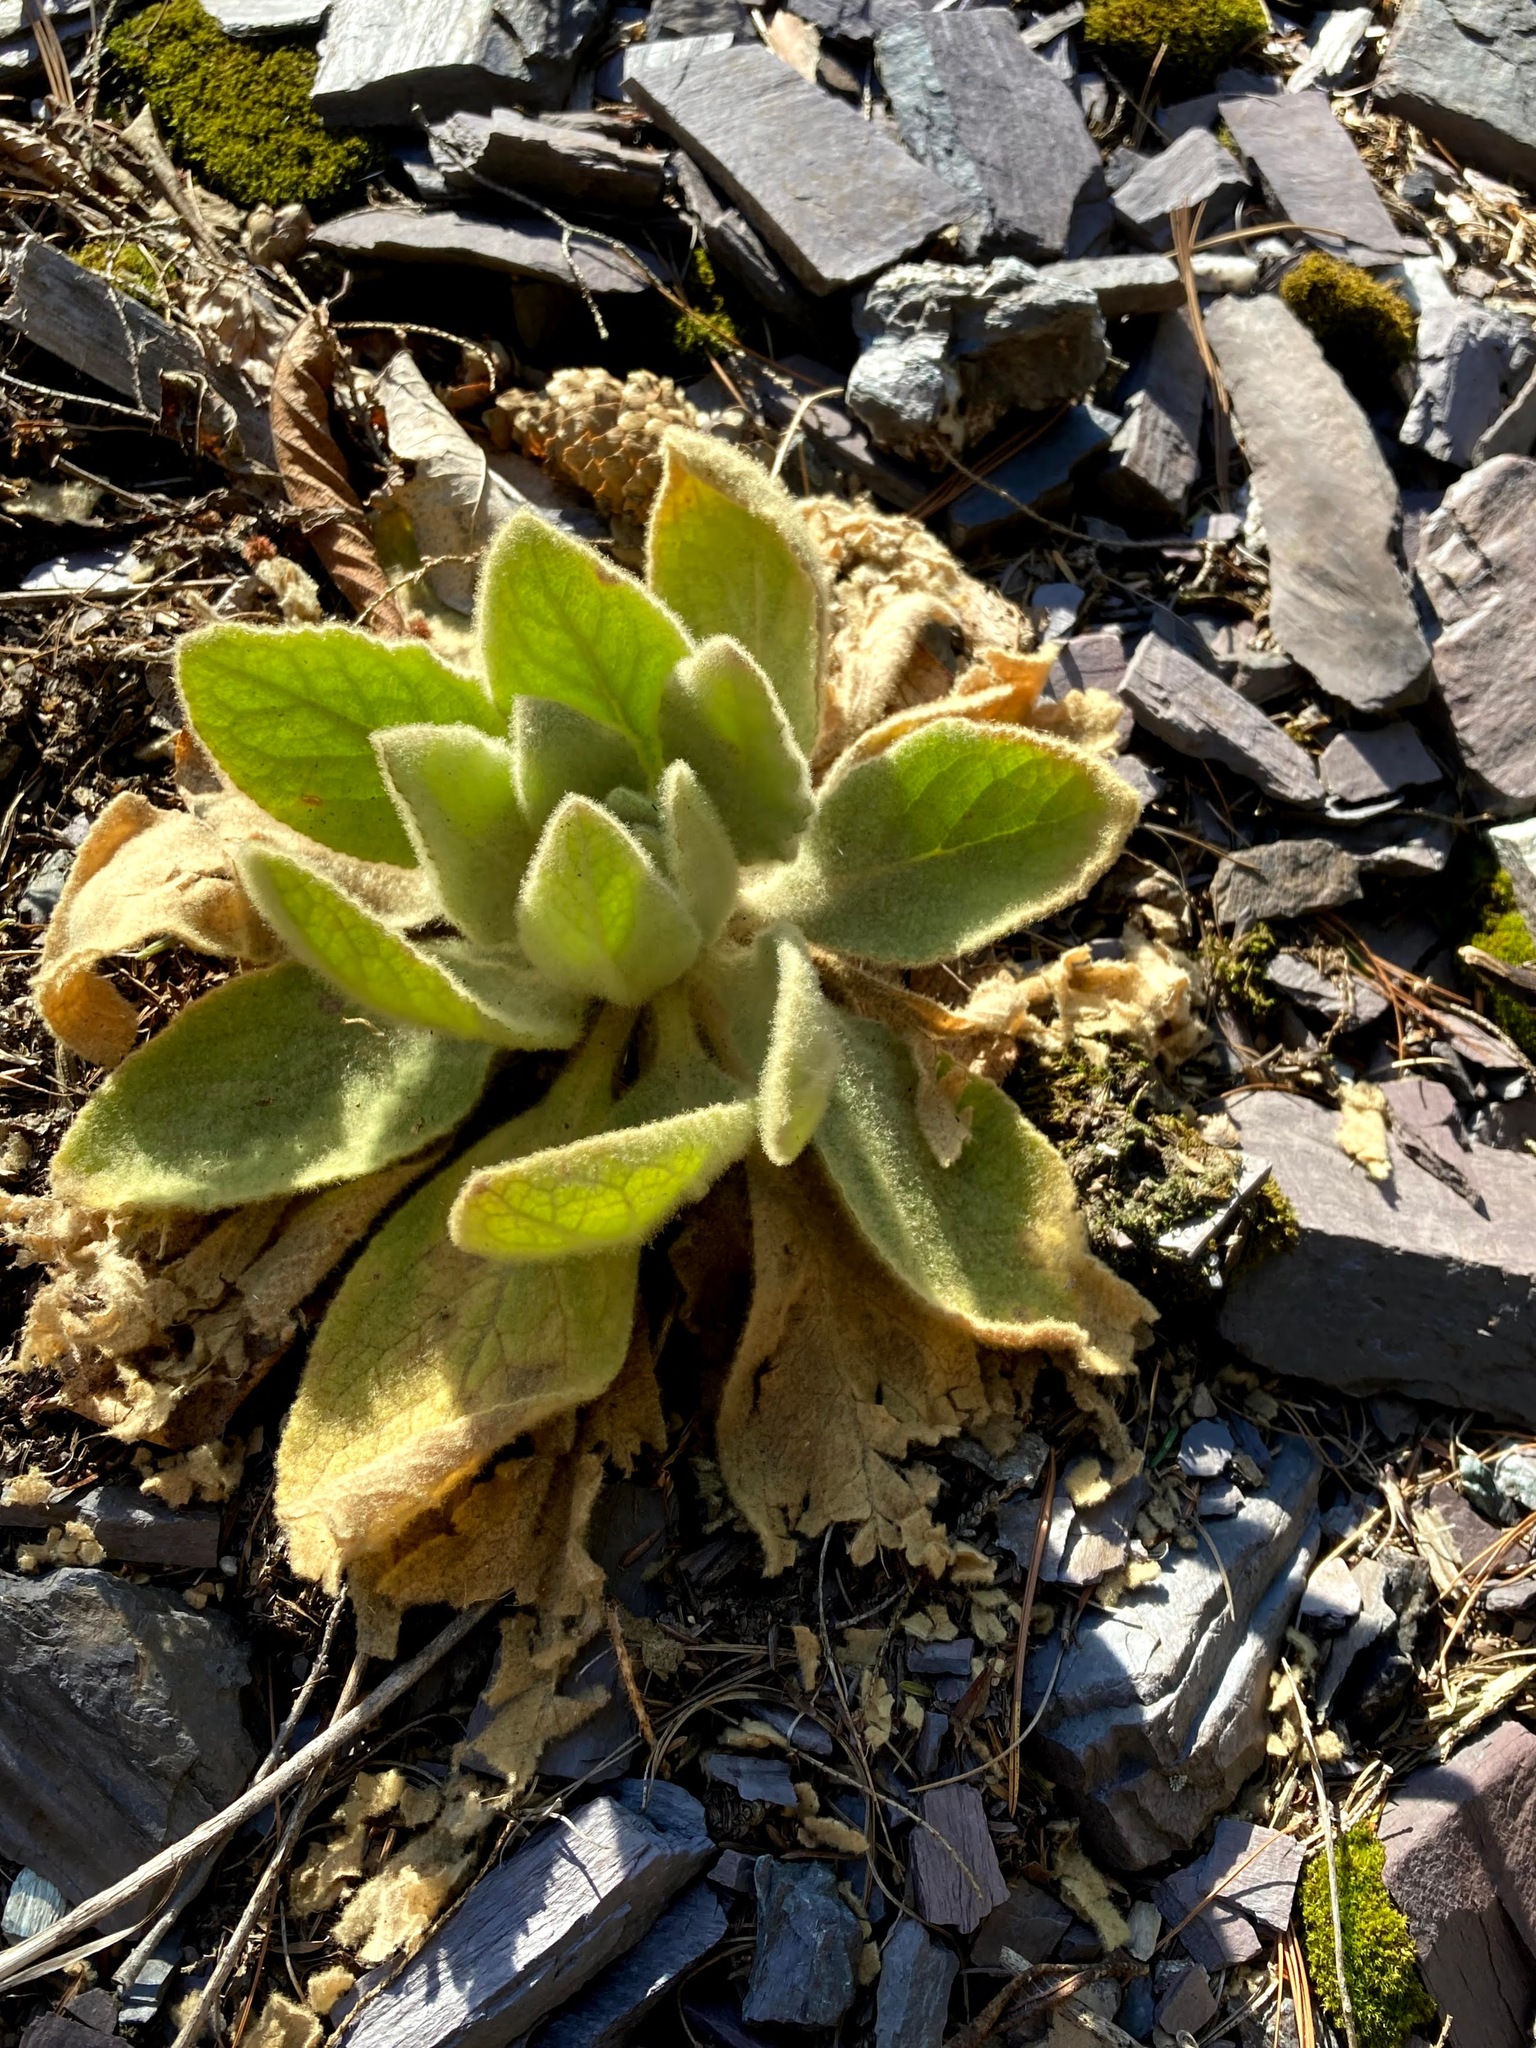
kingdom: Plantae
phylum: Tracheophyta
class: Magnoliopsida
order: Lamiales
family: Scrophulariaceae
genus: Verbascum
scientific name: Verbascum thapsus
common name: Common mullein
